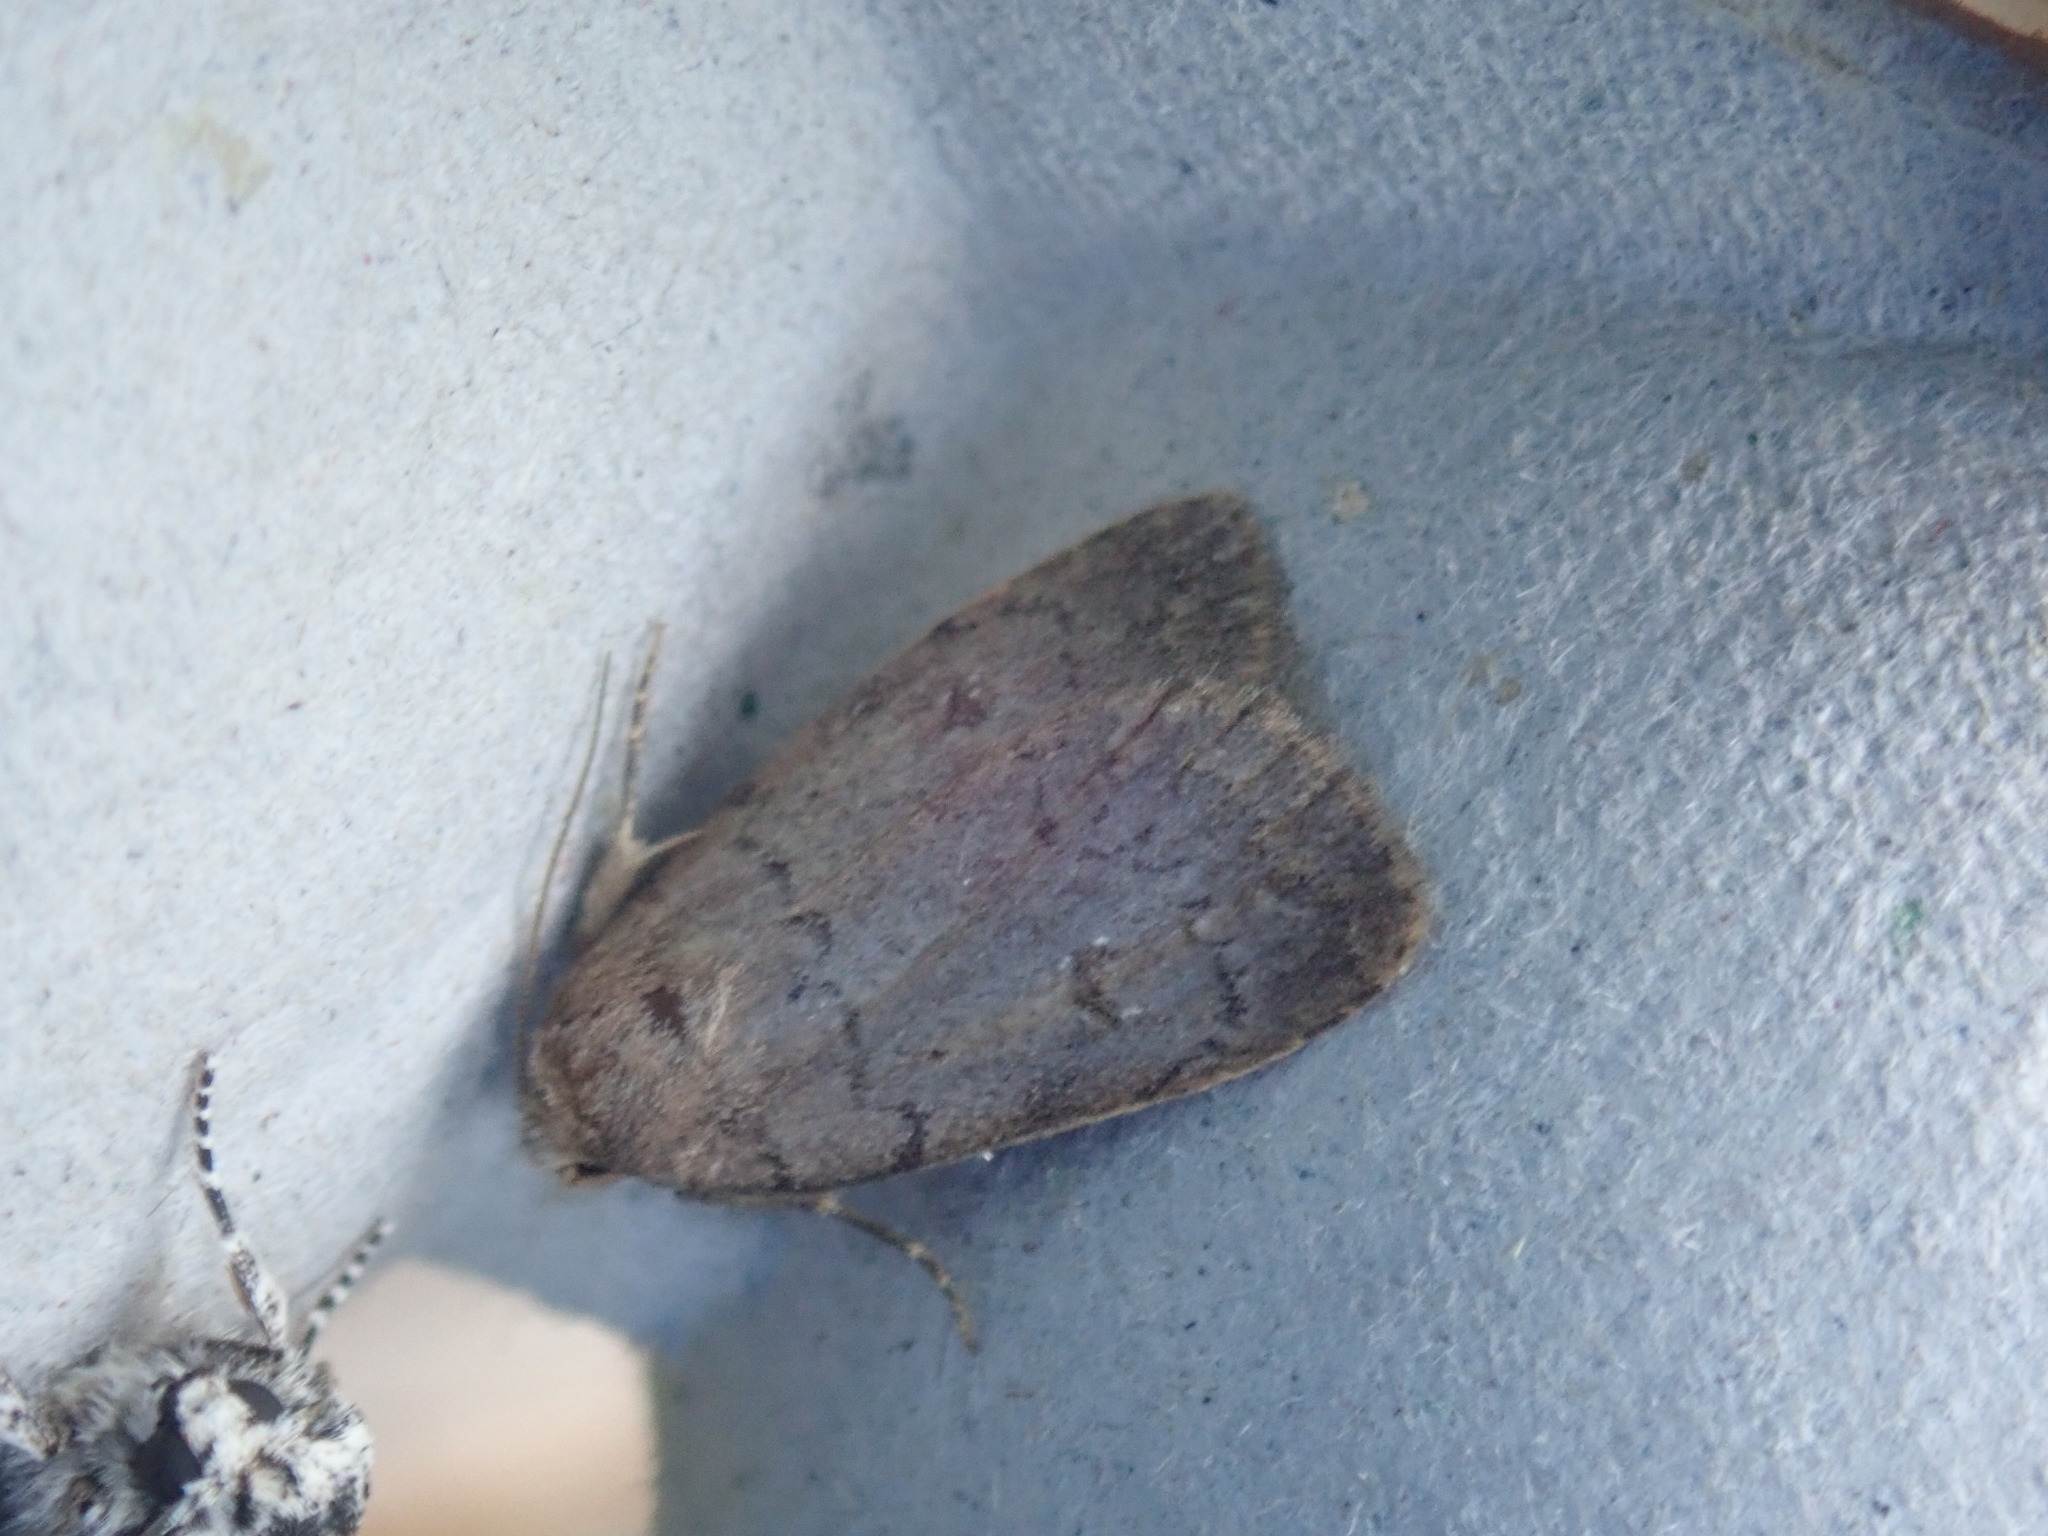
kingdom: Animalia
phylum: Arthropoda
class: Insecta
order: Lepidoptera
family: Noctuidae
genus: Athetis
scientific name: Athetis tarda
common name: Slowpoke moth
